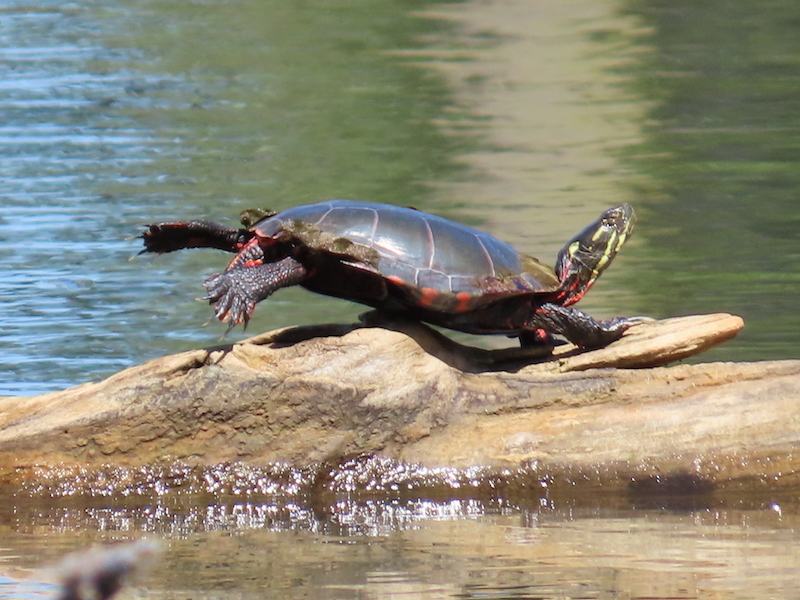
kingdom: Animalia
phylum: Chordata
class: Testudines
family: Emydidae
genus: Chrysemys
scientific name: Chrysemys picta
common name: Painted turtle
